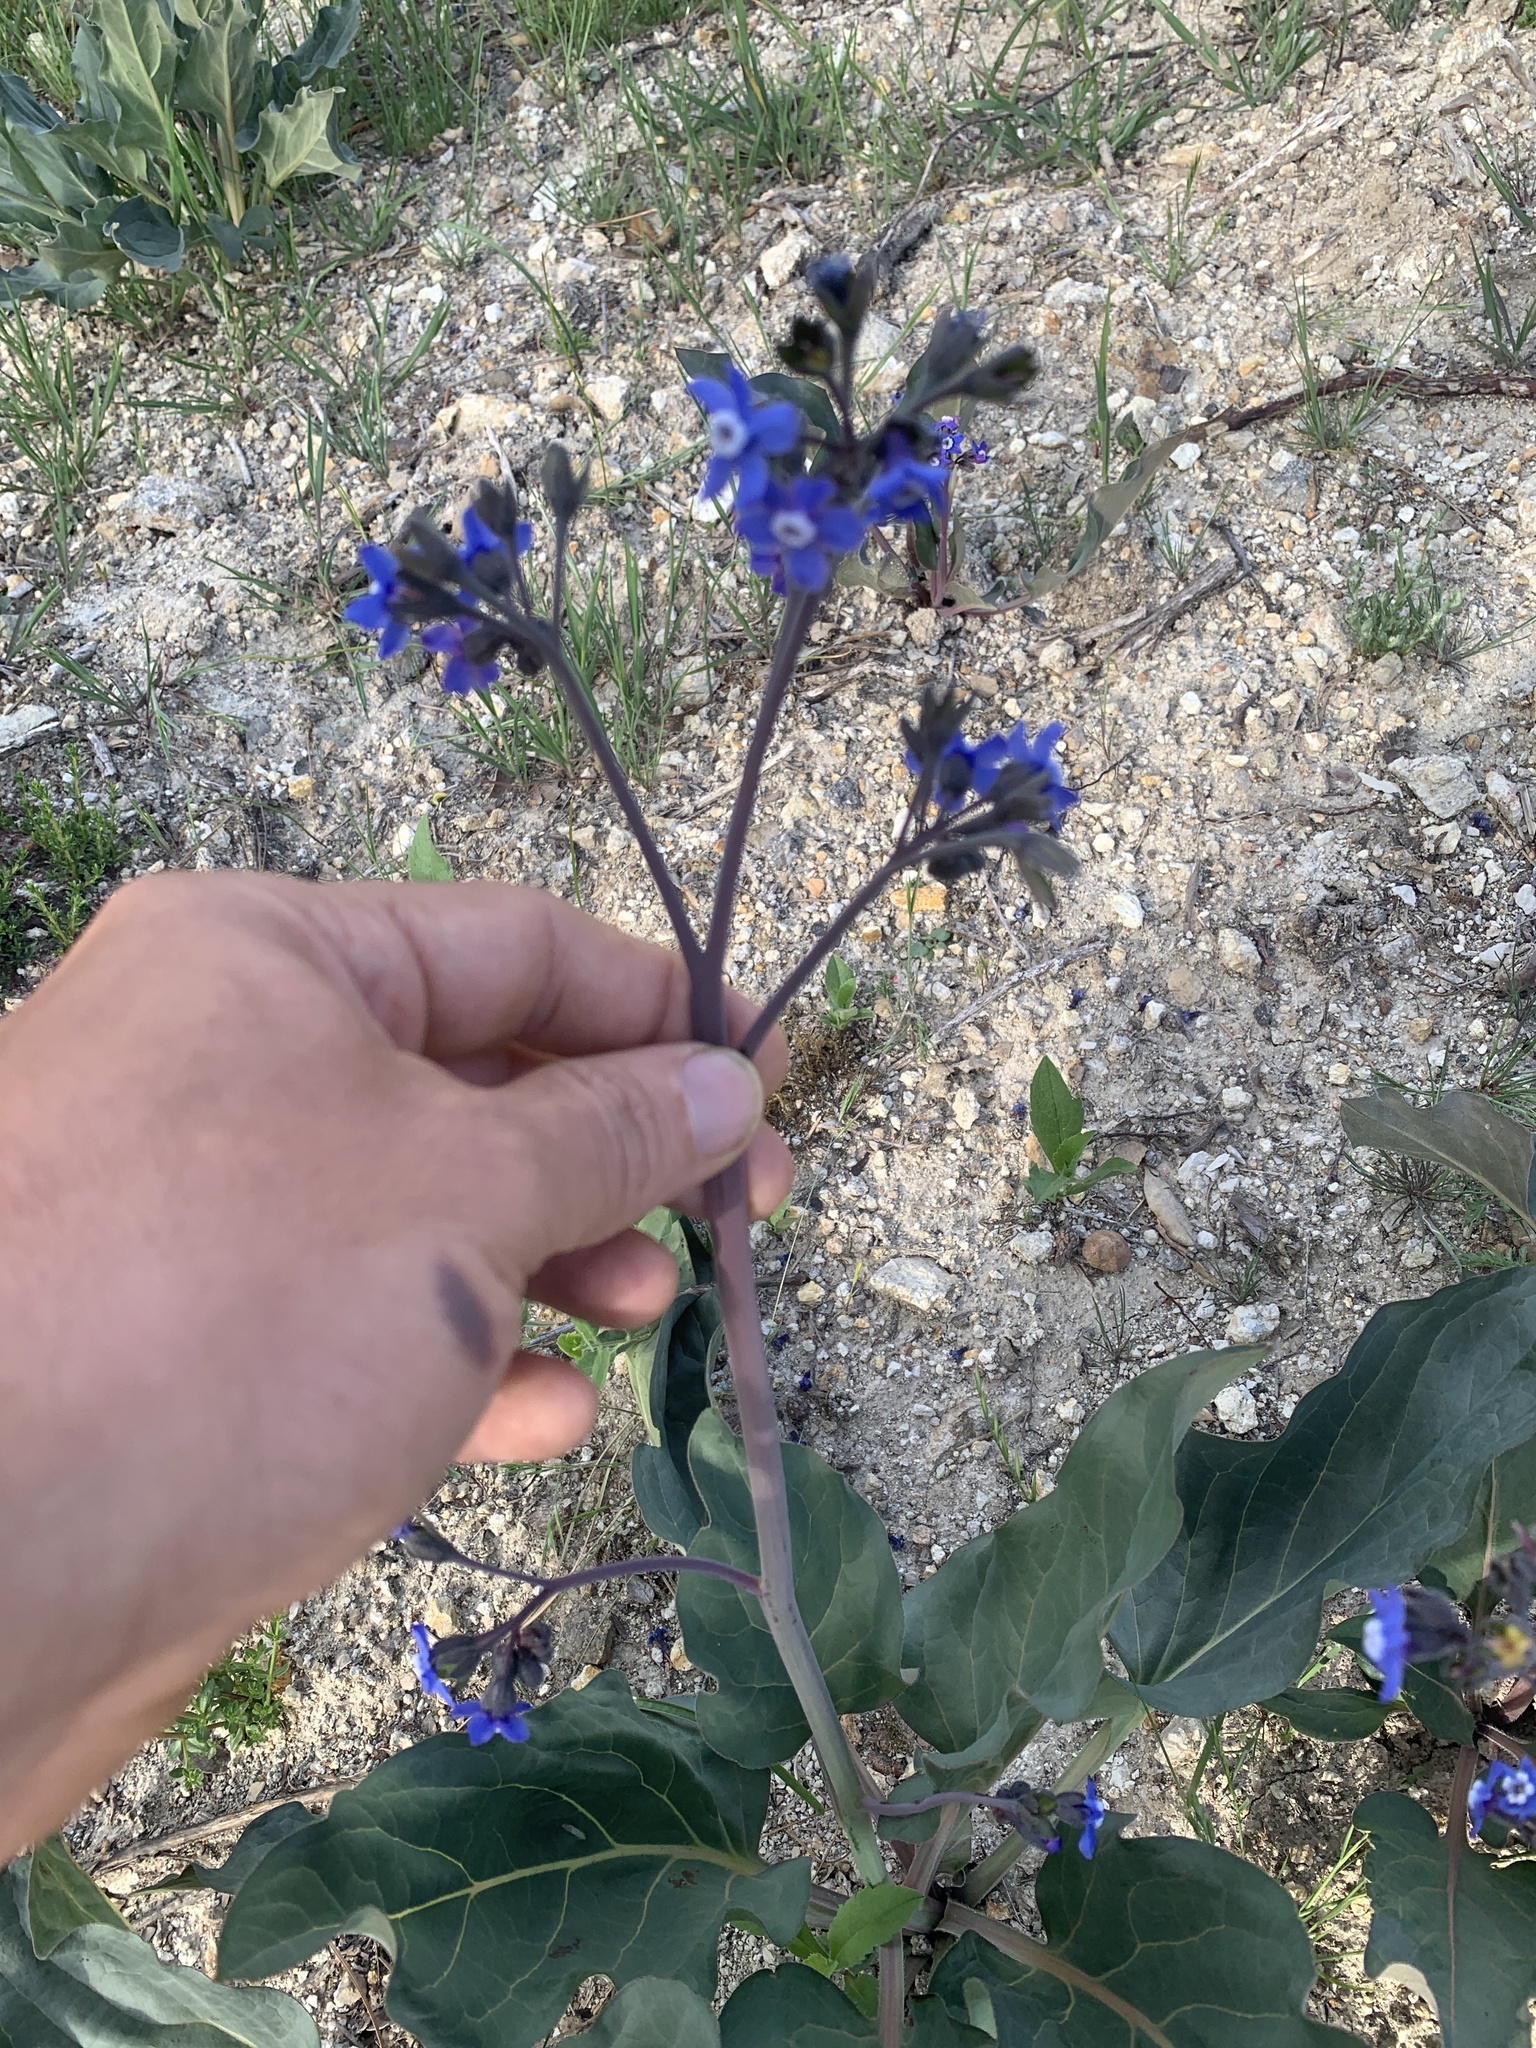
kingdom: Plantae
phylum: Tracheophyta
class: Magnoliopsida
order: Boraginales
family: Boraginaceae
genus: Adelinia
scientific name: Adelinia grande
